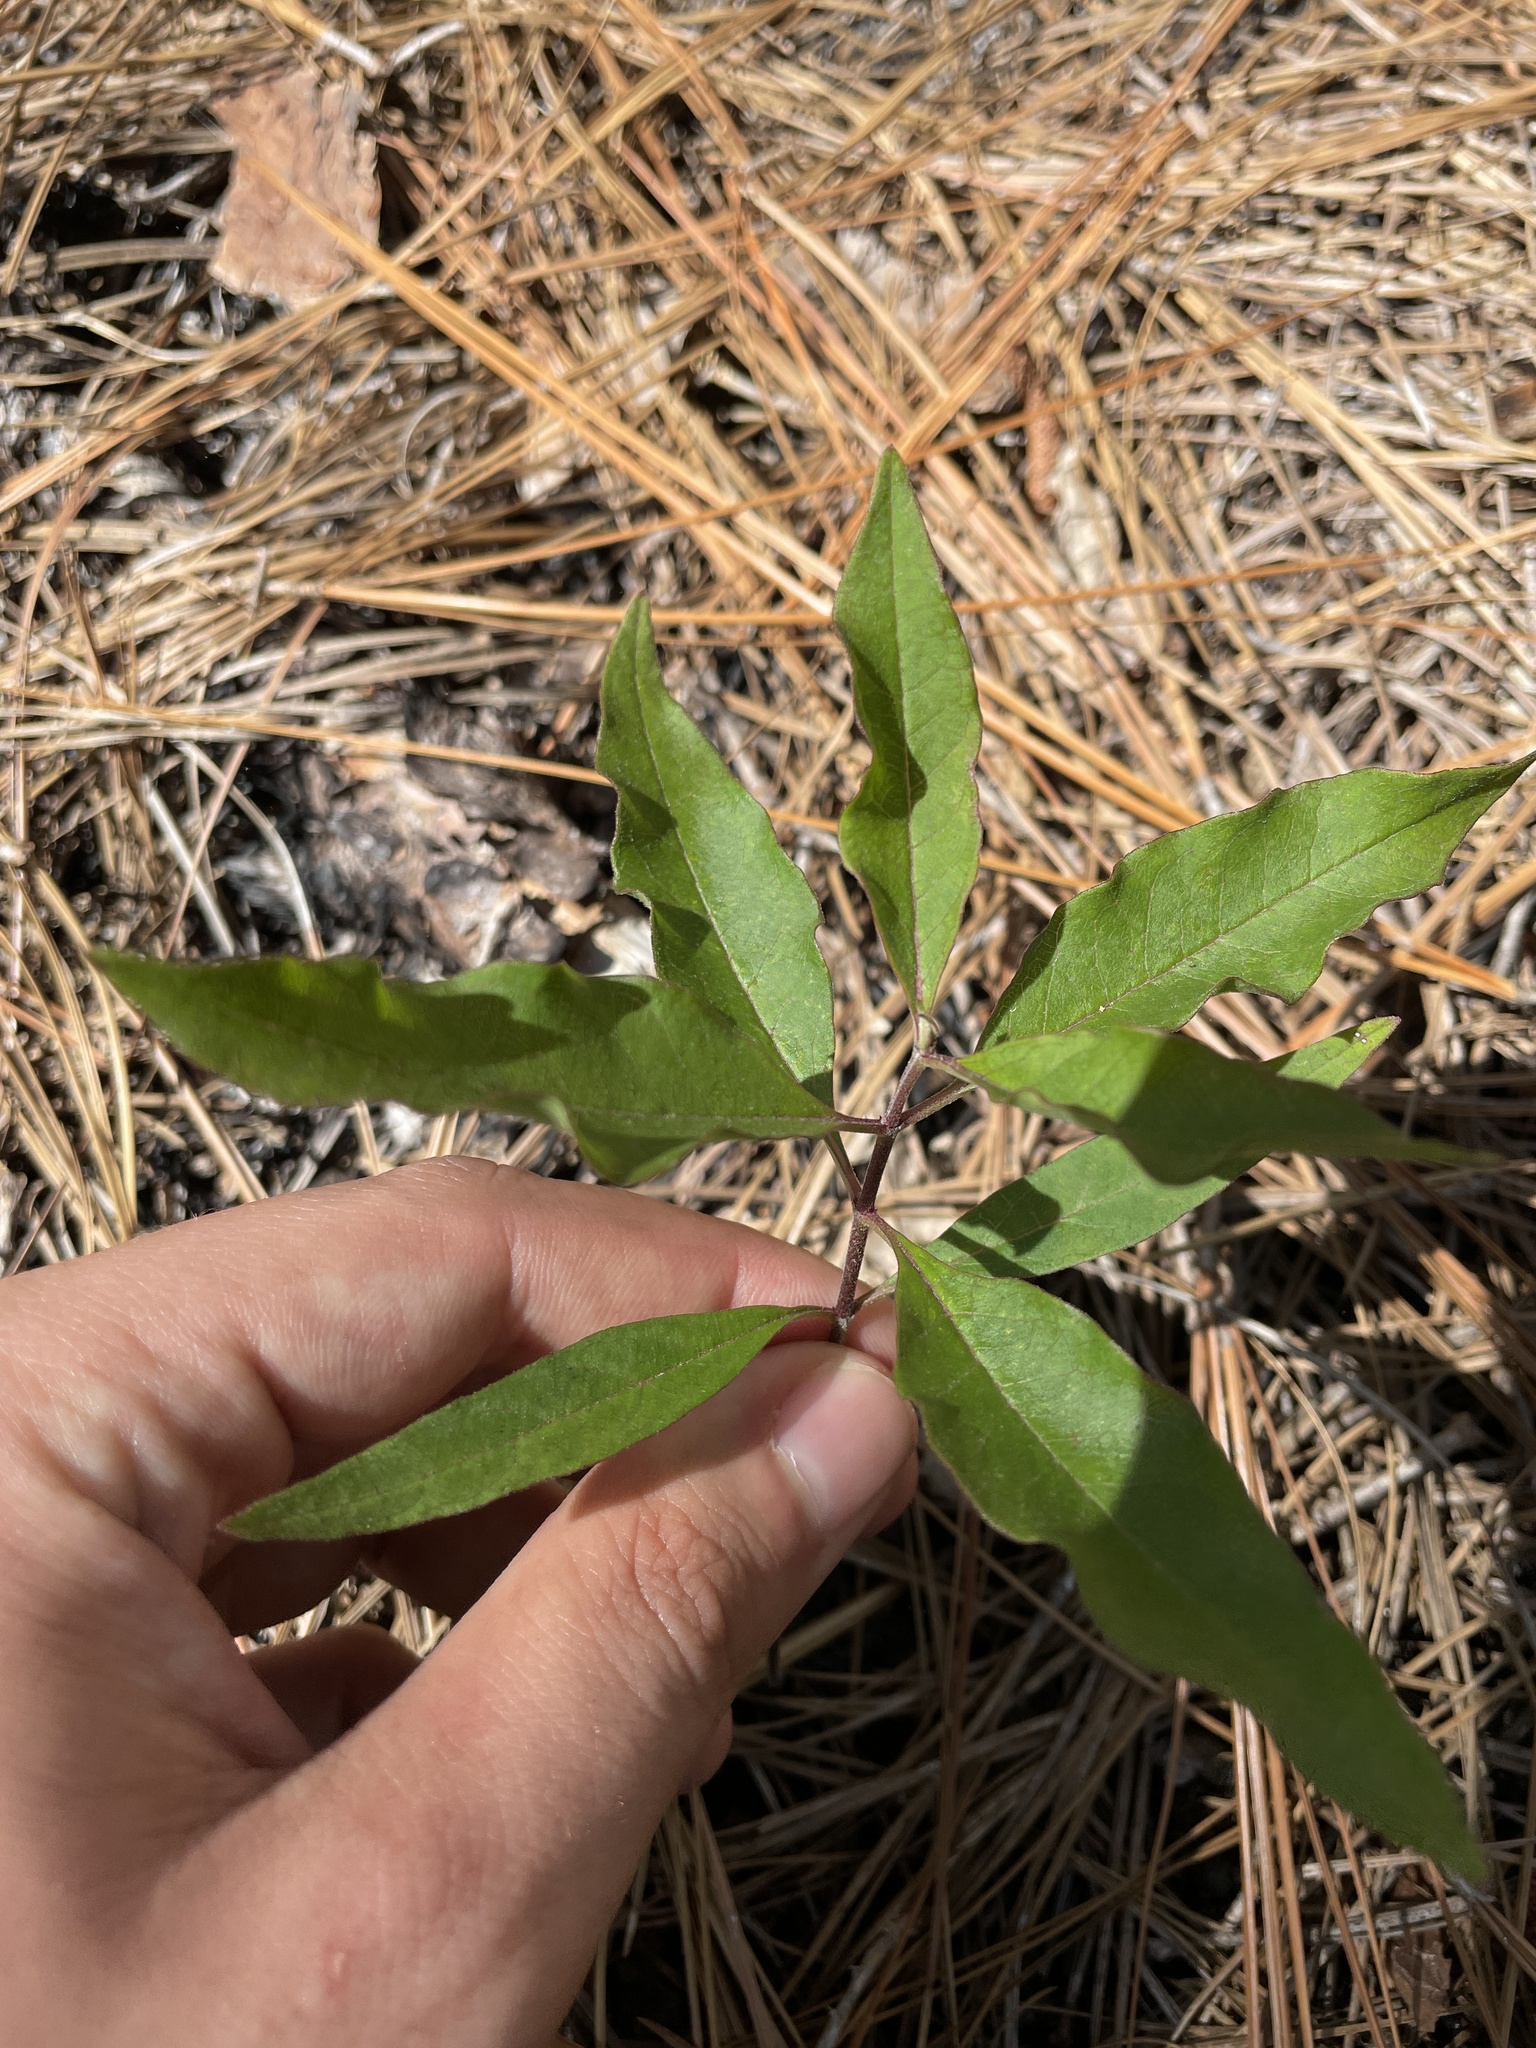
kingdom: Plantae
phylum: Tracheophyta
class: Magnoliopsida
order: Gentianales
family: Apocynaceae
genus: Asclepias
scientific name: Asclepias tomentosa
